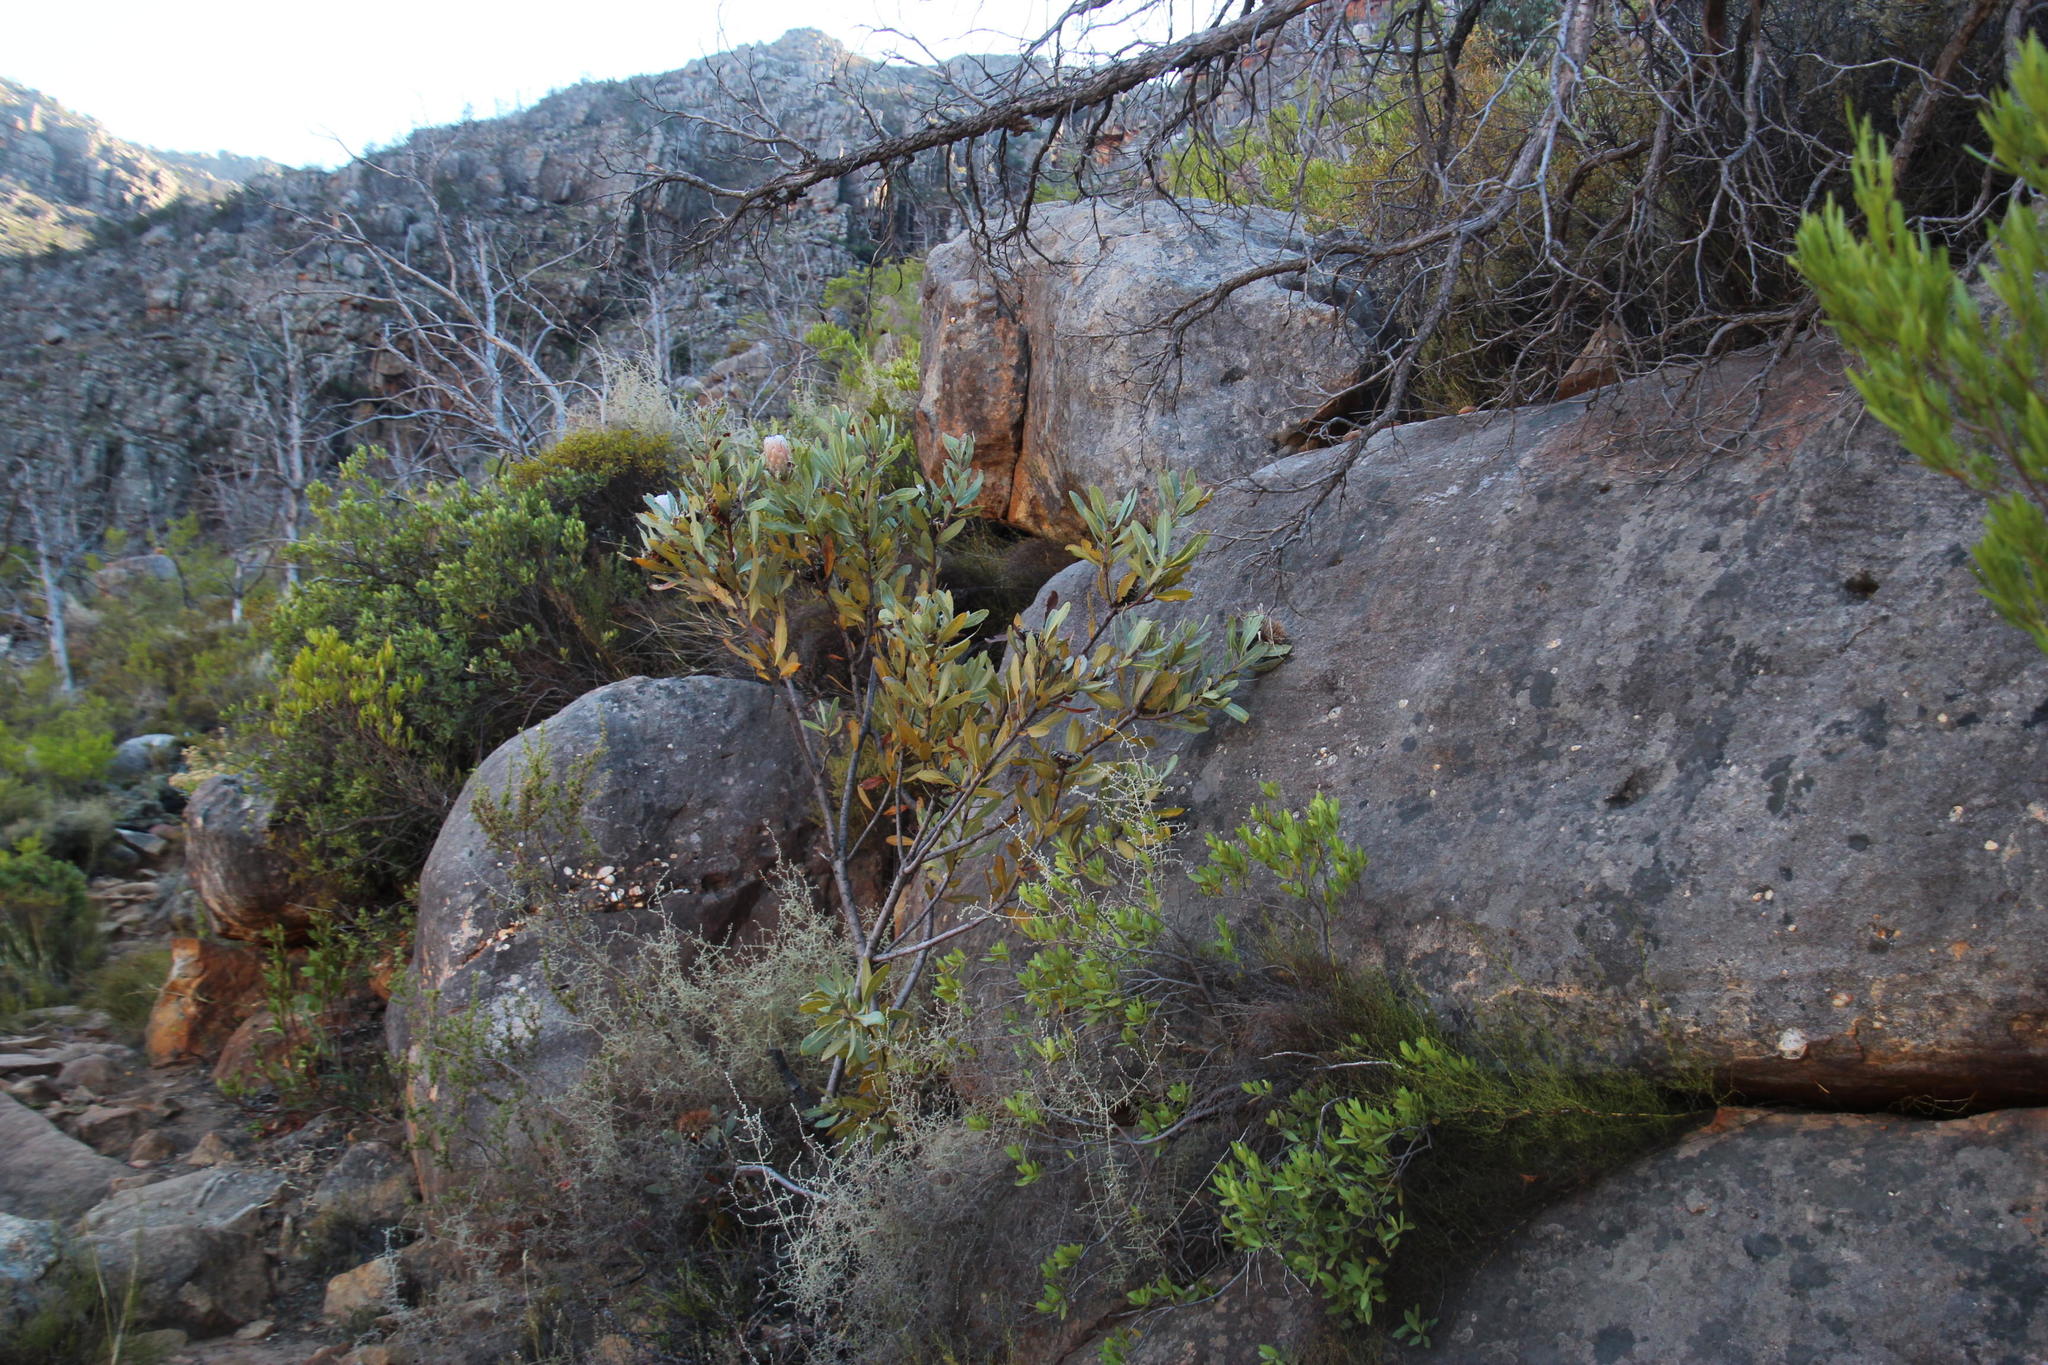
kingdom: Plantae
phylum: Tracheophyta
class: Magnoliopsida
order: Proteales
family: Proteaceae
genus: Protea
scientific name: Protea laurifolia
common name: Grey-leaf sugarbsh
